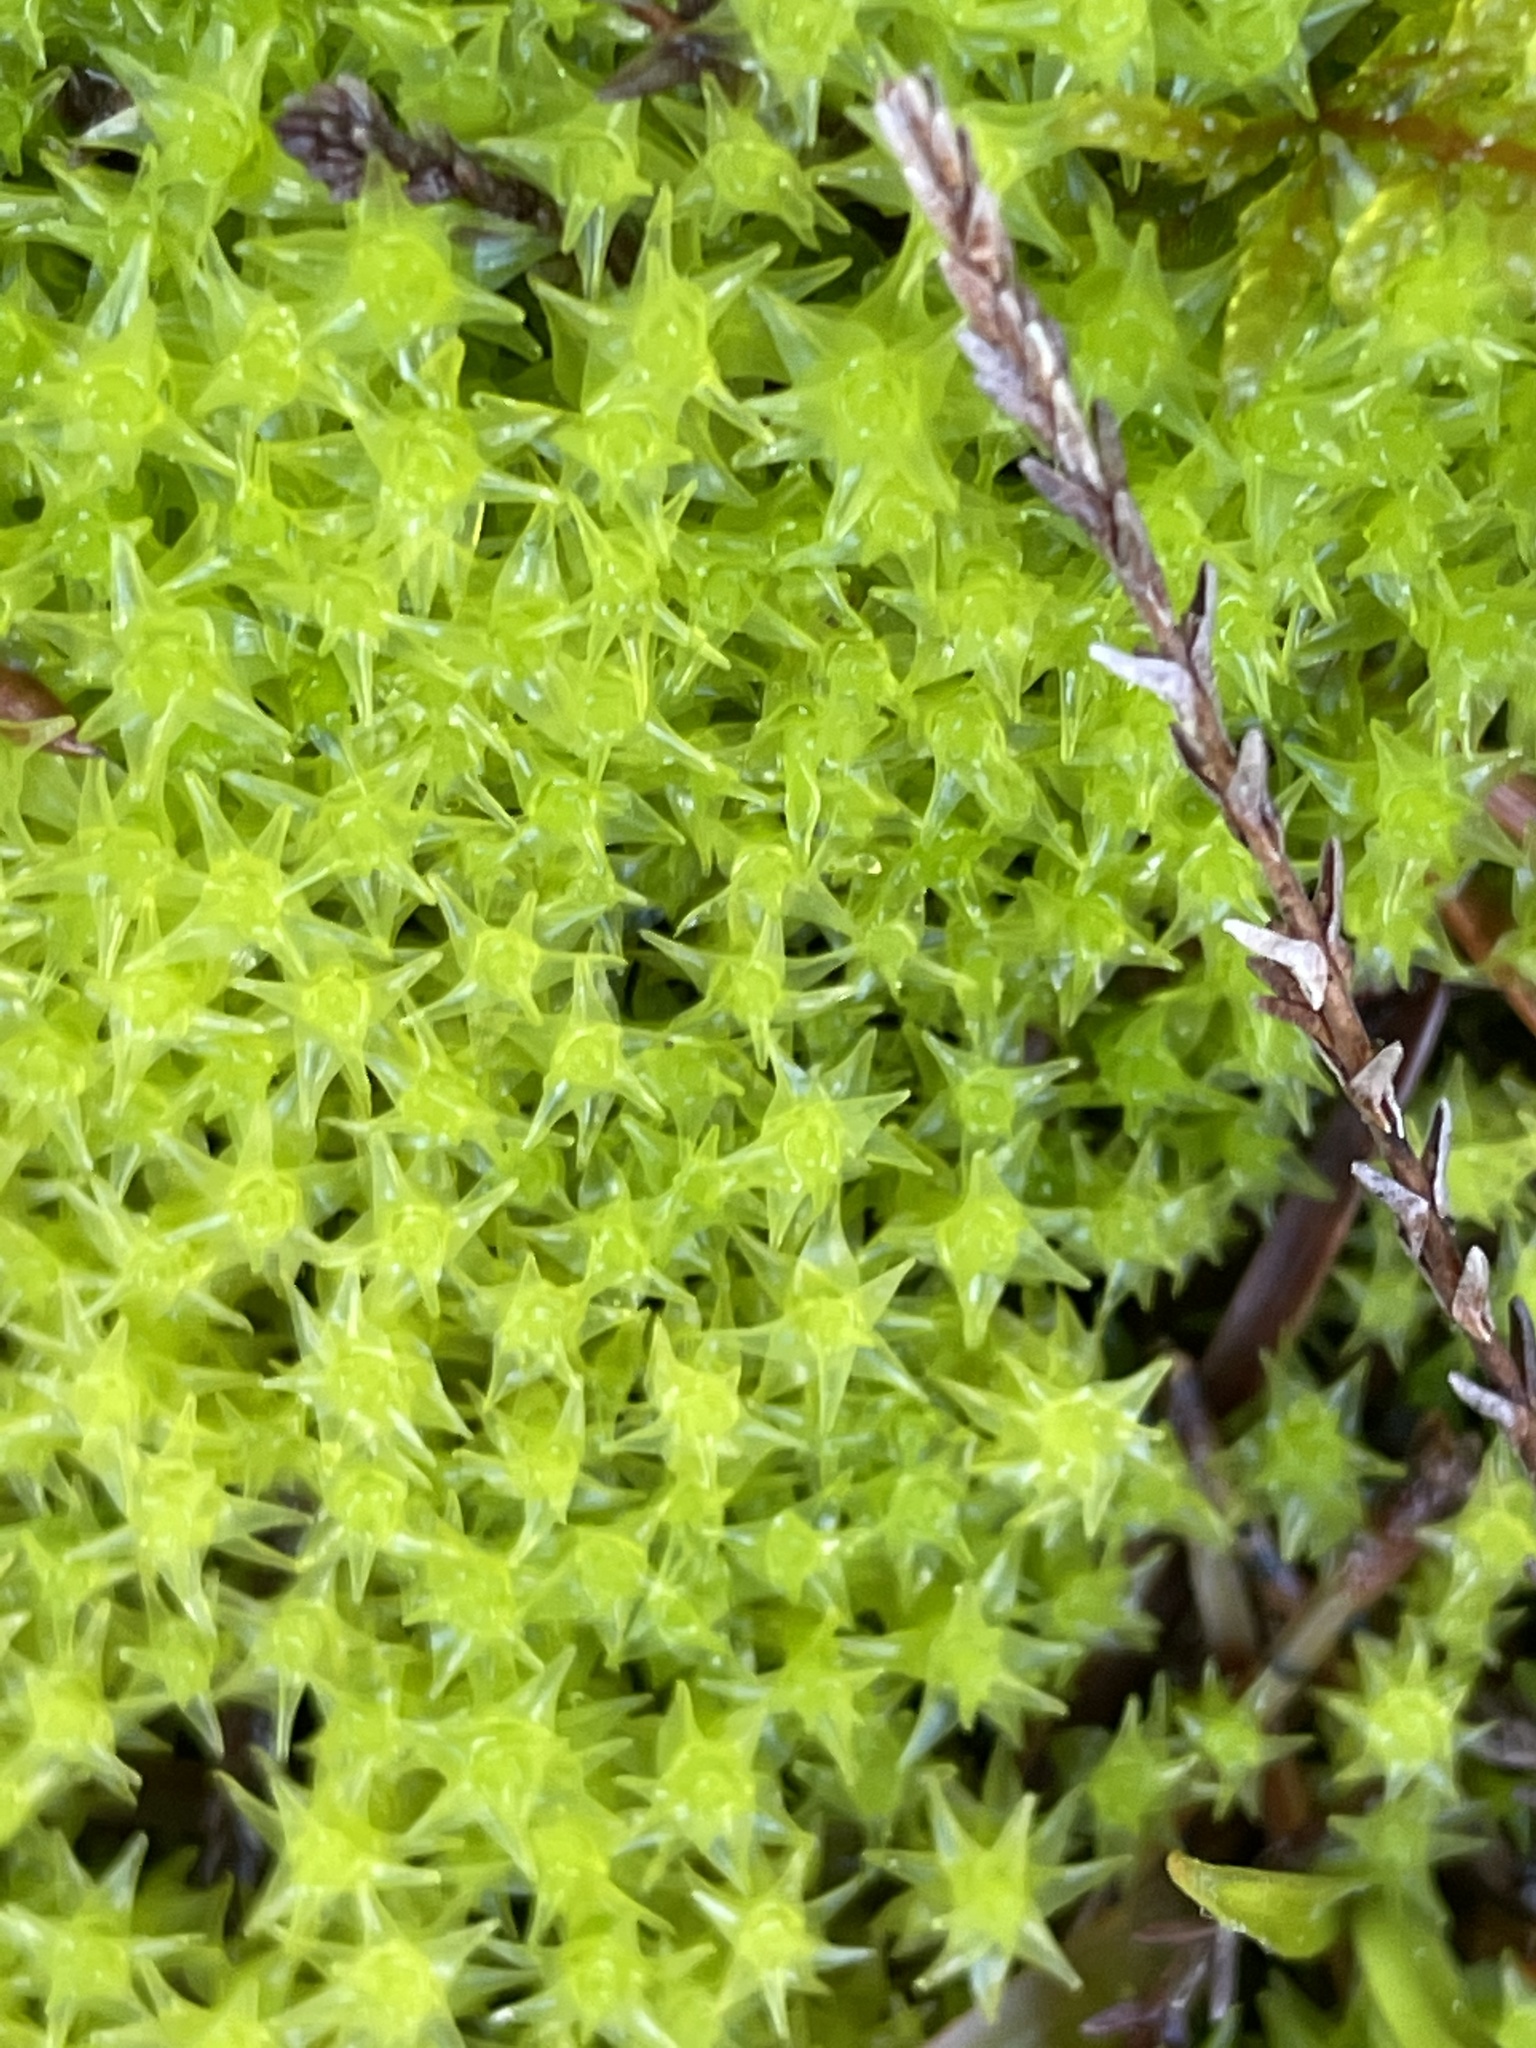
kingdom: Plantae
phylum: Bryophyta
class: Bryopsida
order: Dicranales
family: Aongstroemiaceae
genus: Diobelonella
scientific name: Diobelonella palustris
